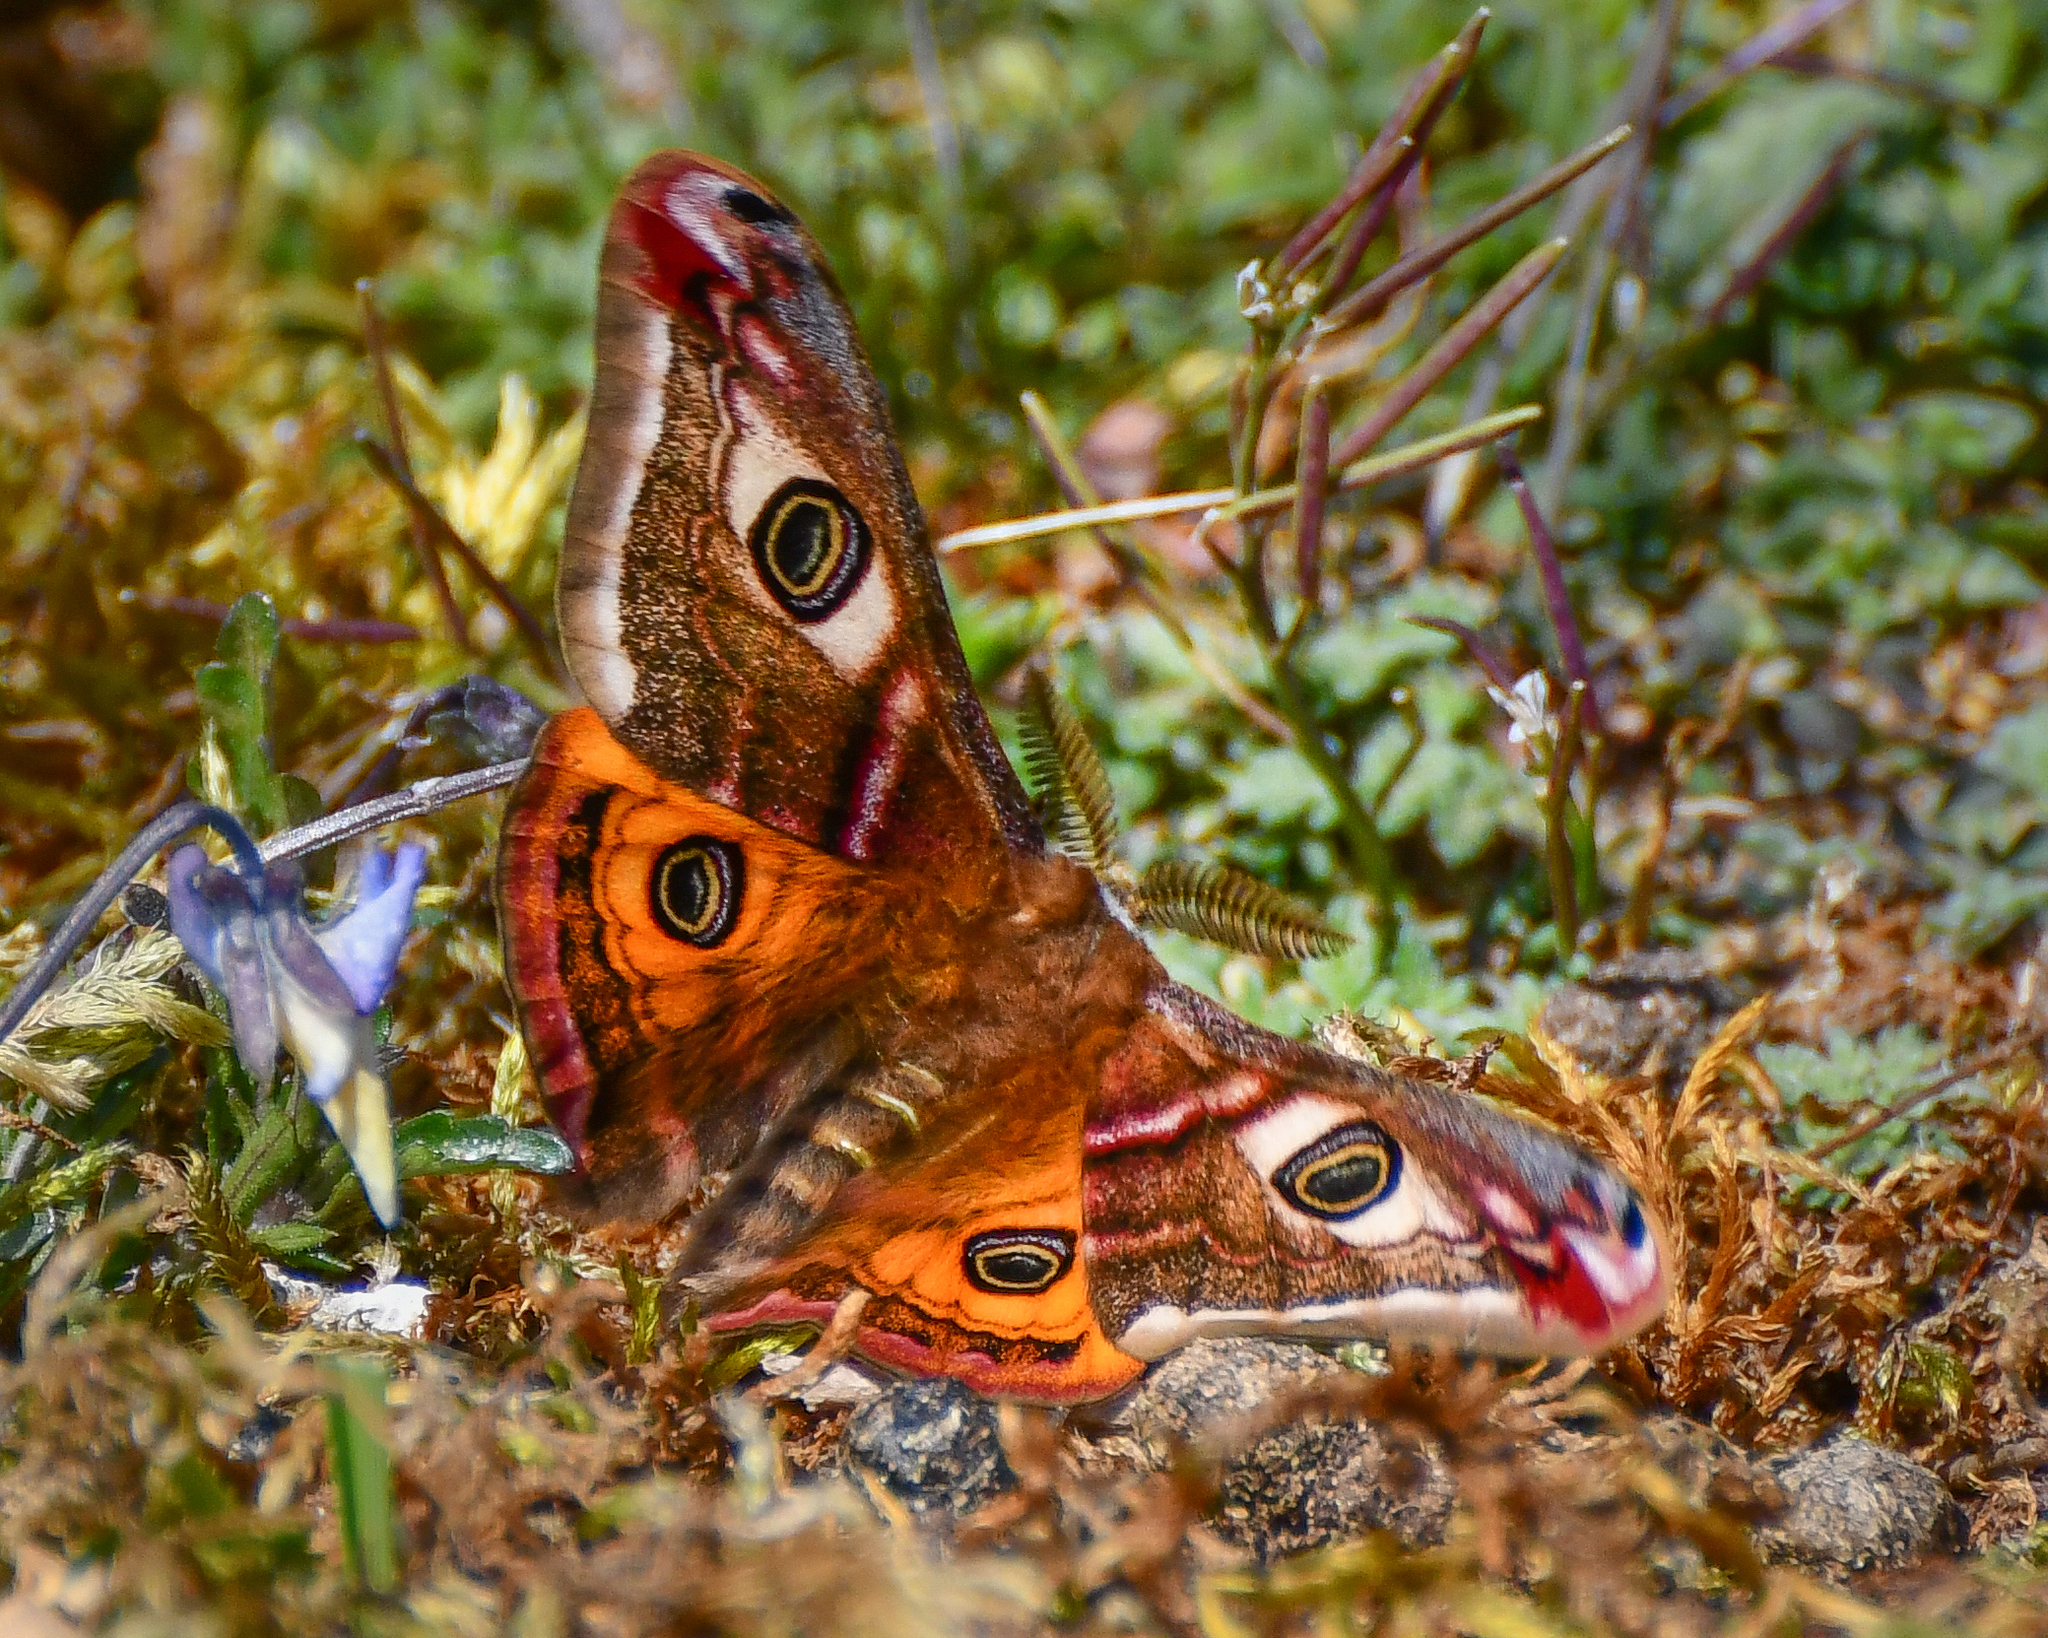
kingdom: Animalia
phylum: Arthropoda
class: Insecta
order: Lepidoptera
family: Saturniidae
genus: Saturnia
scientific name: Saturnia pavonia
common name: Emperor moth
